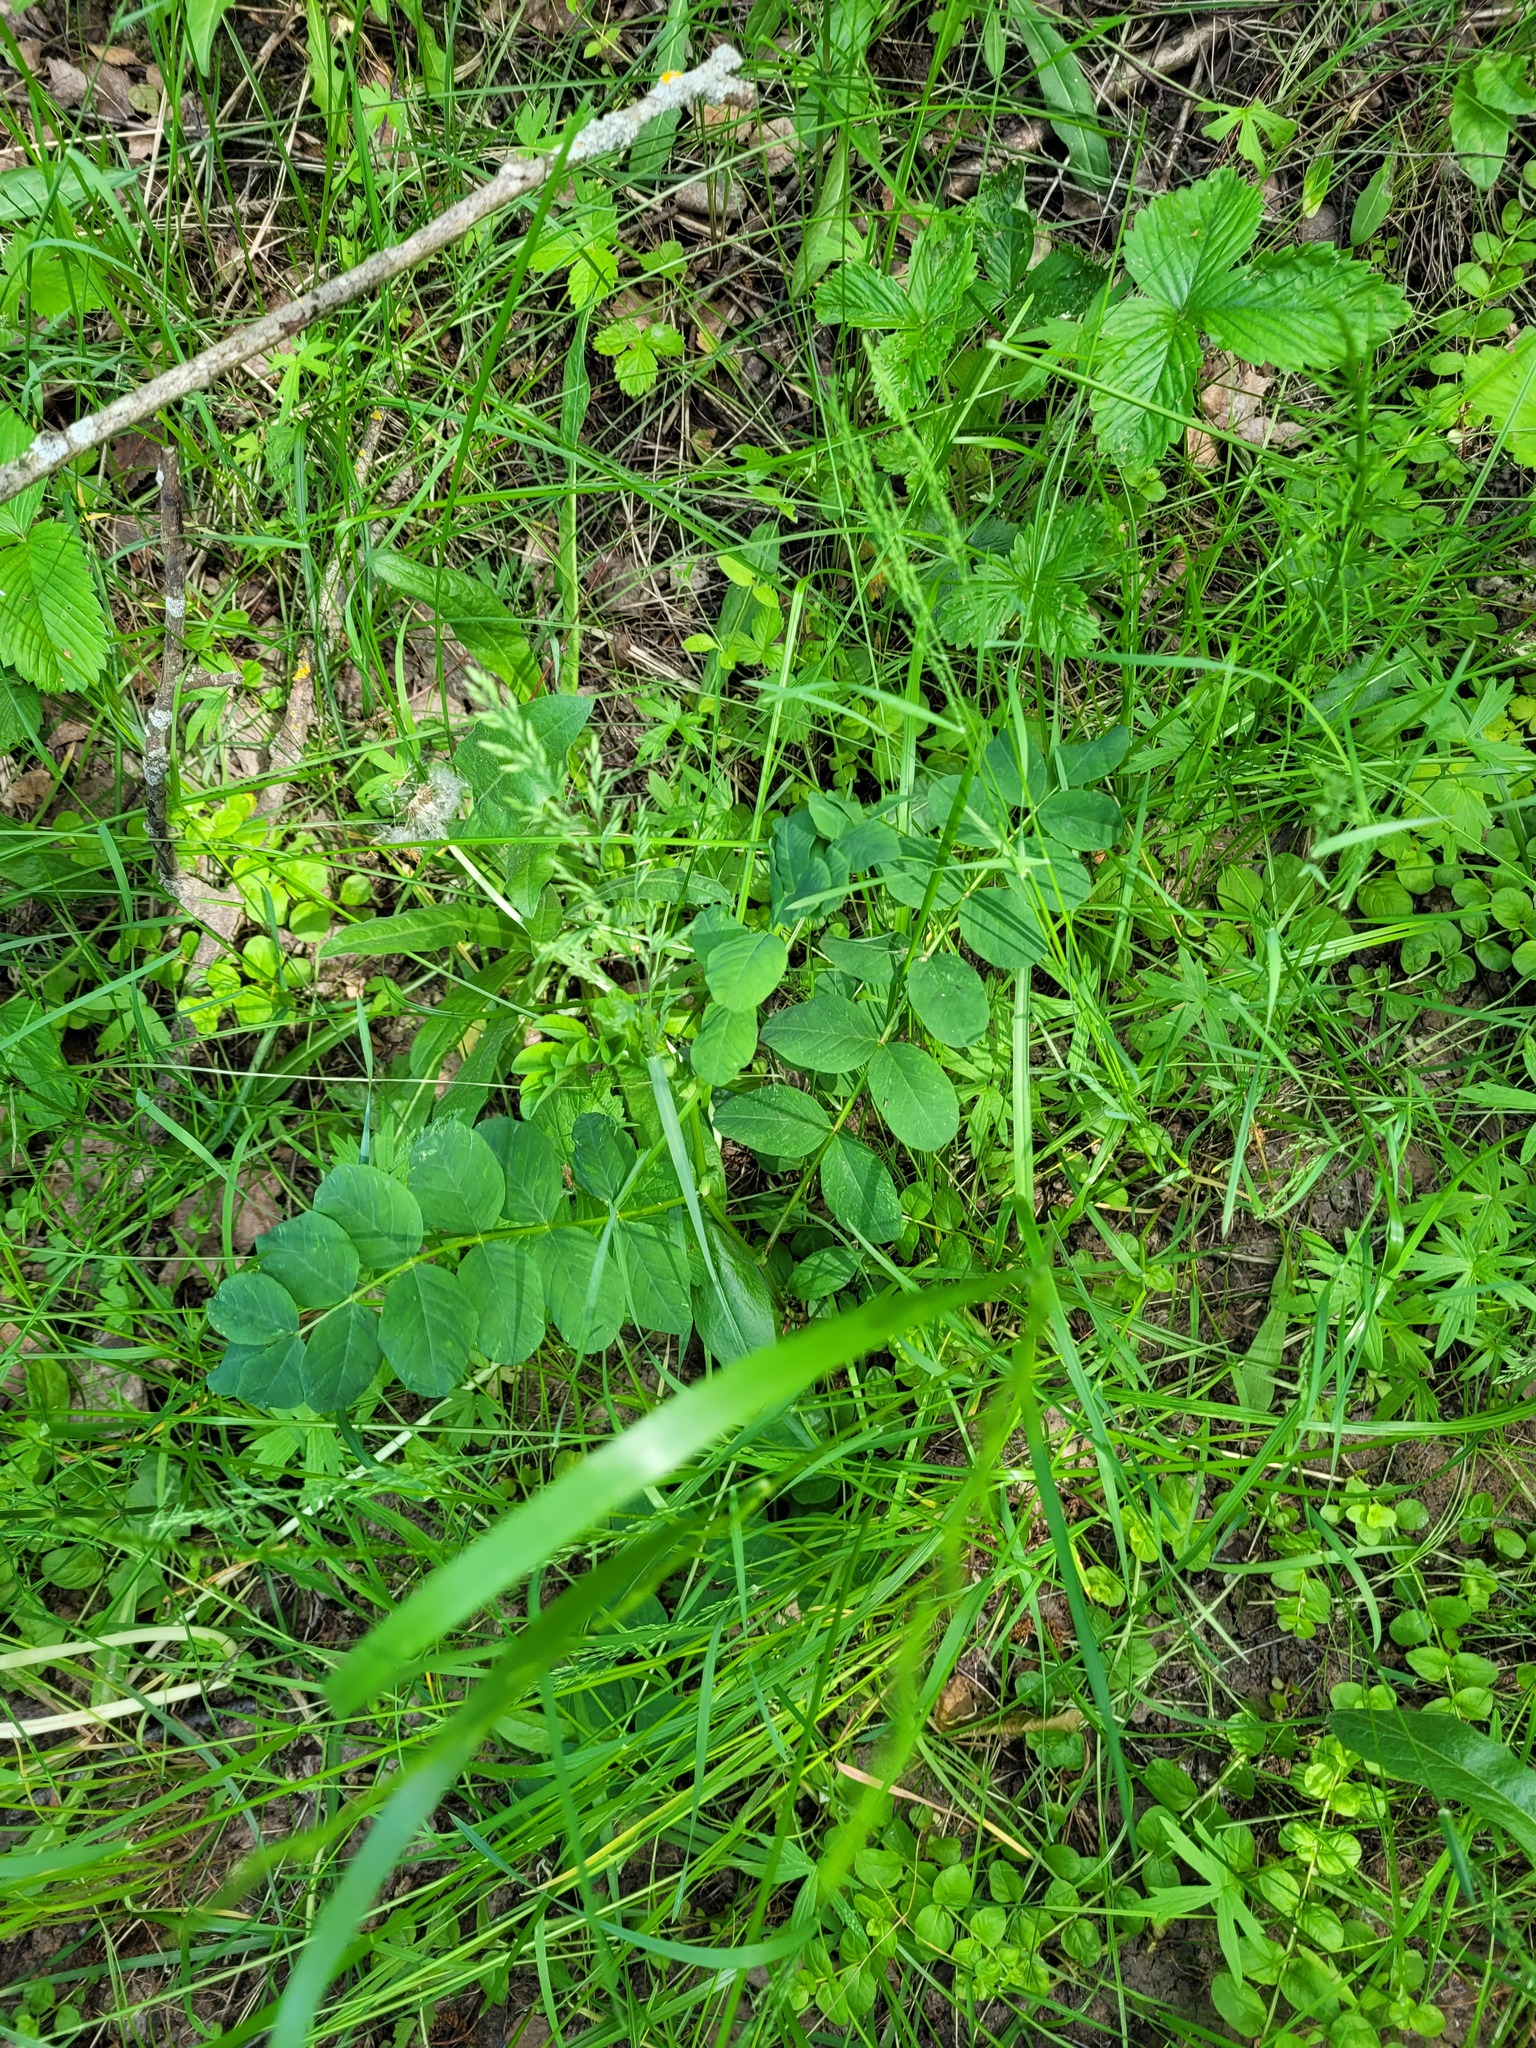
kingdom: Plantae
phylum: Tracheophyta
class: Magnoliopsida
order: Fabales
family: Fabaceae
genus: Astragalus
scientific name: Astragalus glycyphyllos
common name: Wild liquorice
